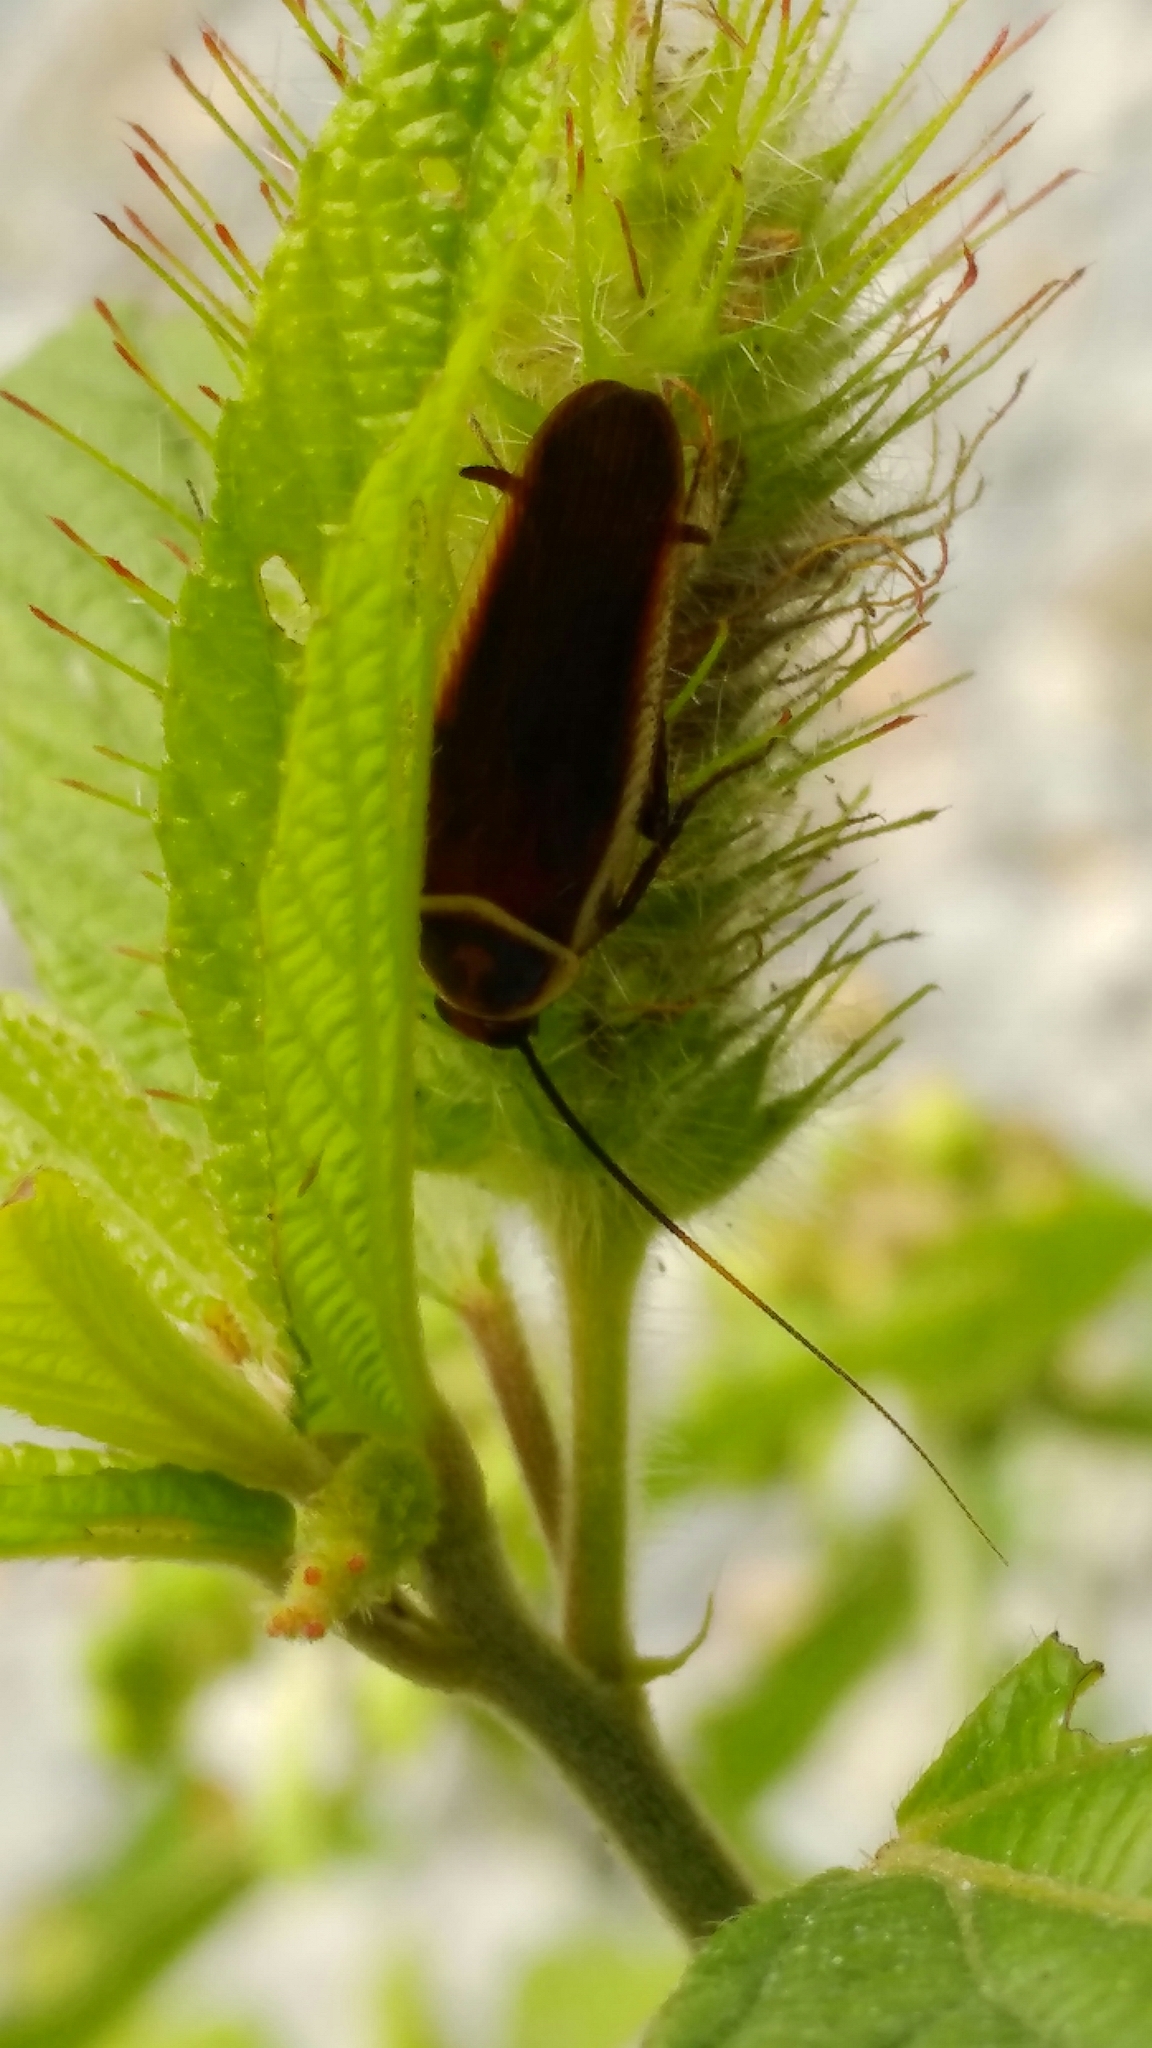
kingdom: Animalia
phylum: Arthropoda
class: Insecta
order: Blattodea
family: Ectobiidae
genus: Pseudomops
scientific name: Pseudomops septentrionalis
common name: Pale-bordered field cockroach
